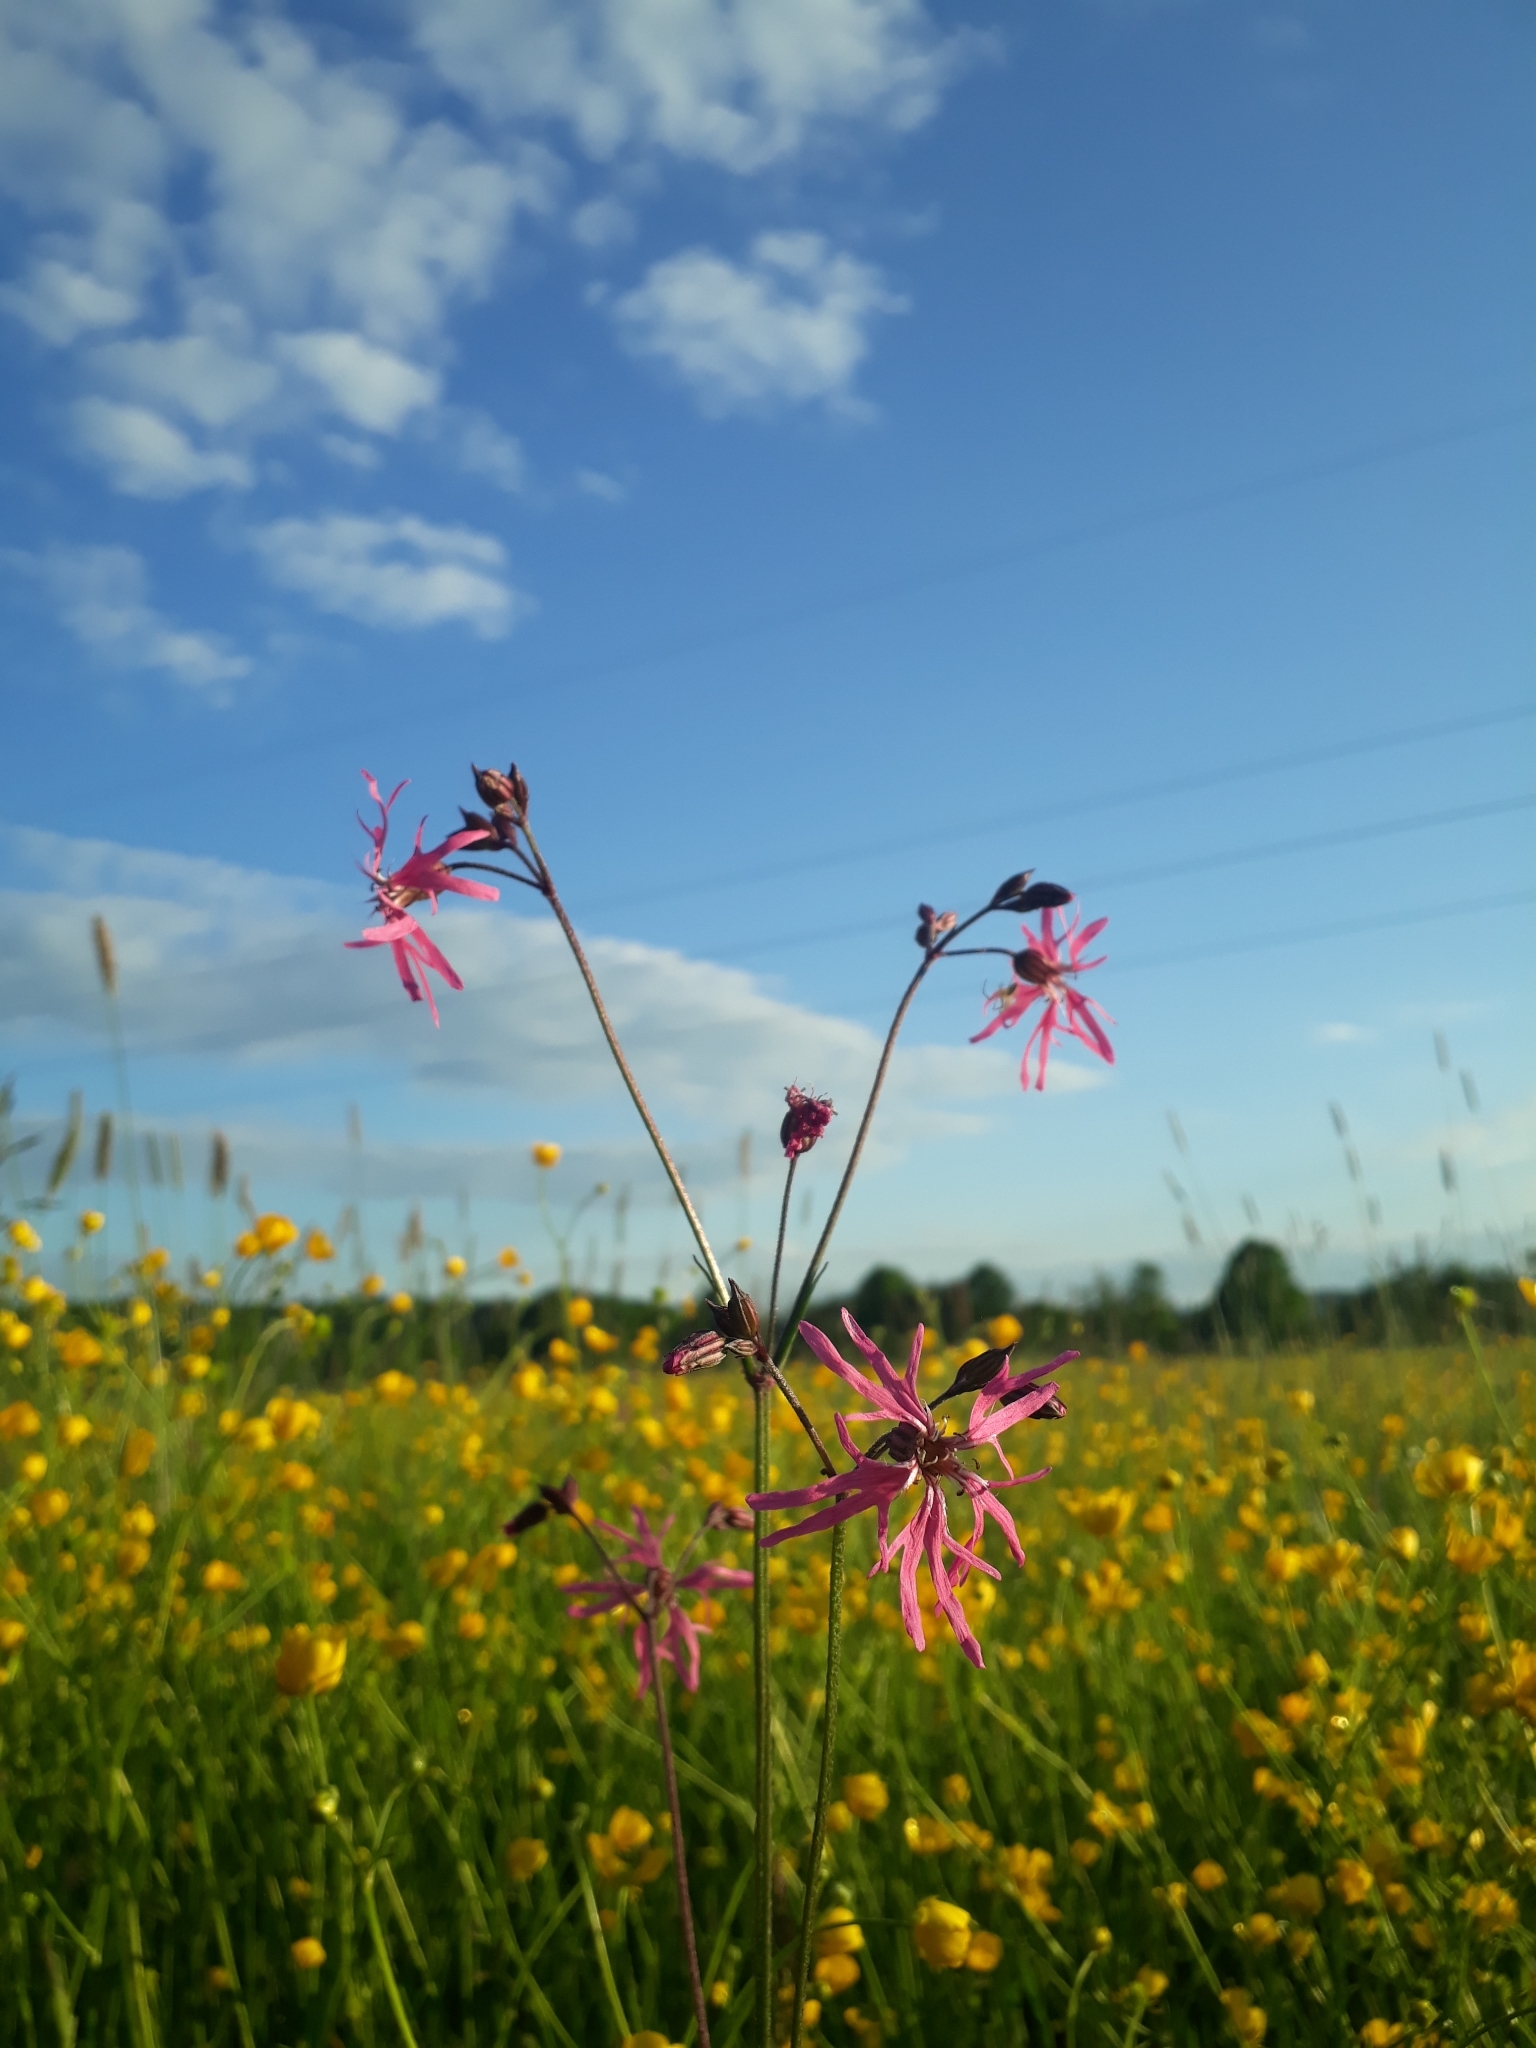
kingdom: Plantae
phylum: Tracheophyta
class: Magnoliopsida
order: Caryophyllales
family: Caryophyllaceae
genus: Silene
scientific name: Silene flos-cuculi
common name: Ragged-robin
